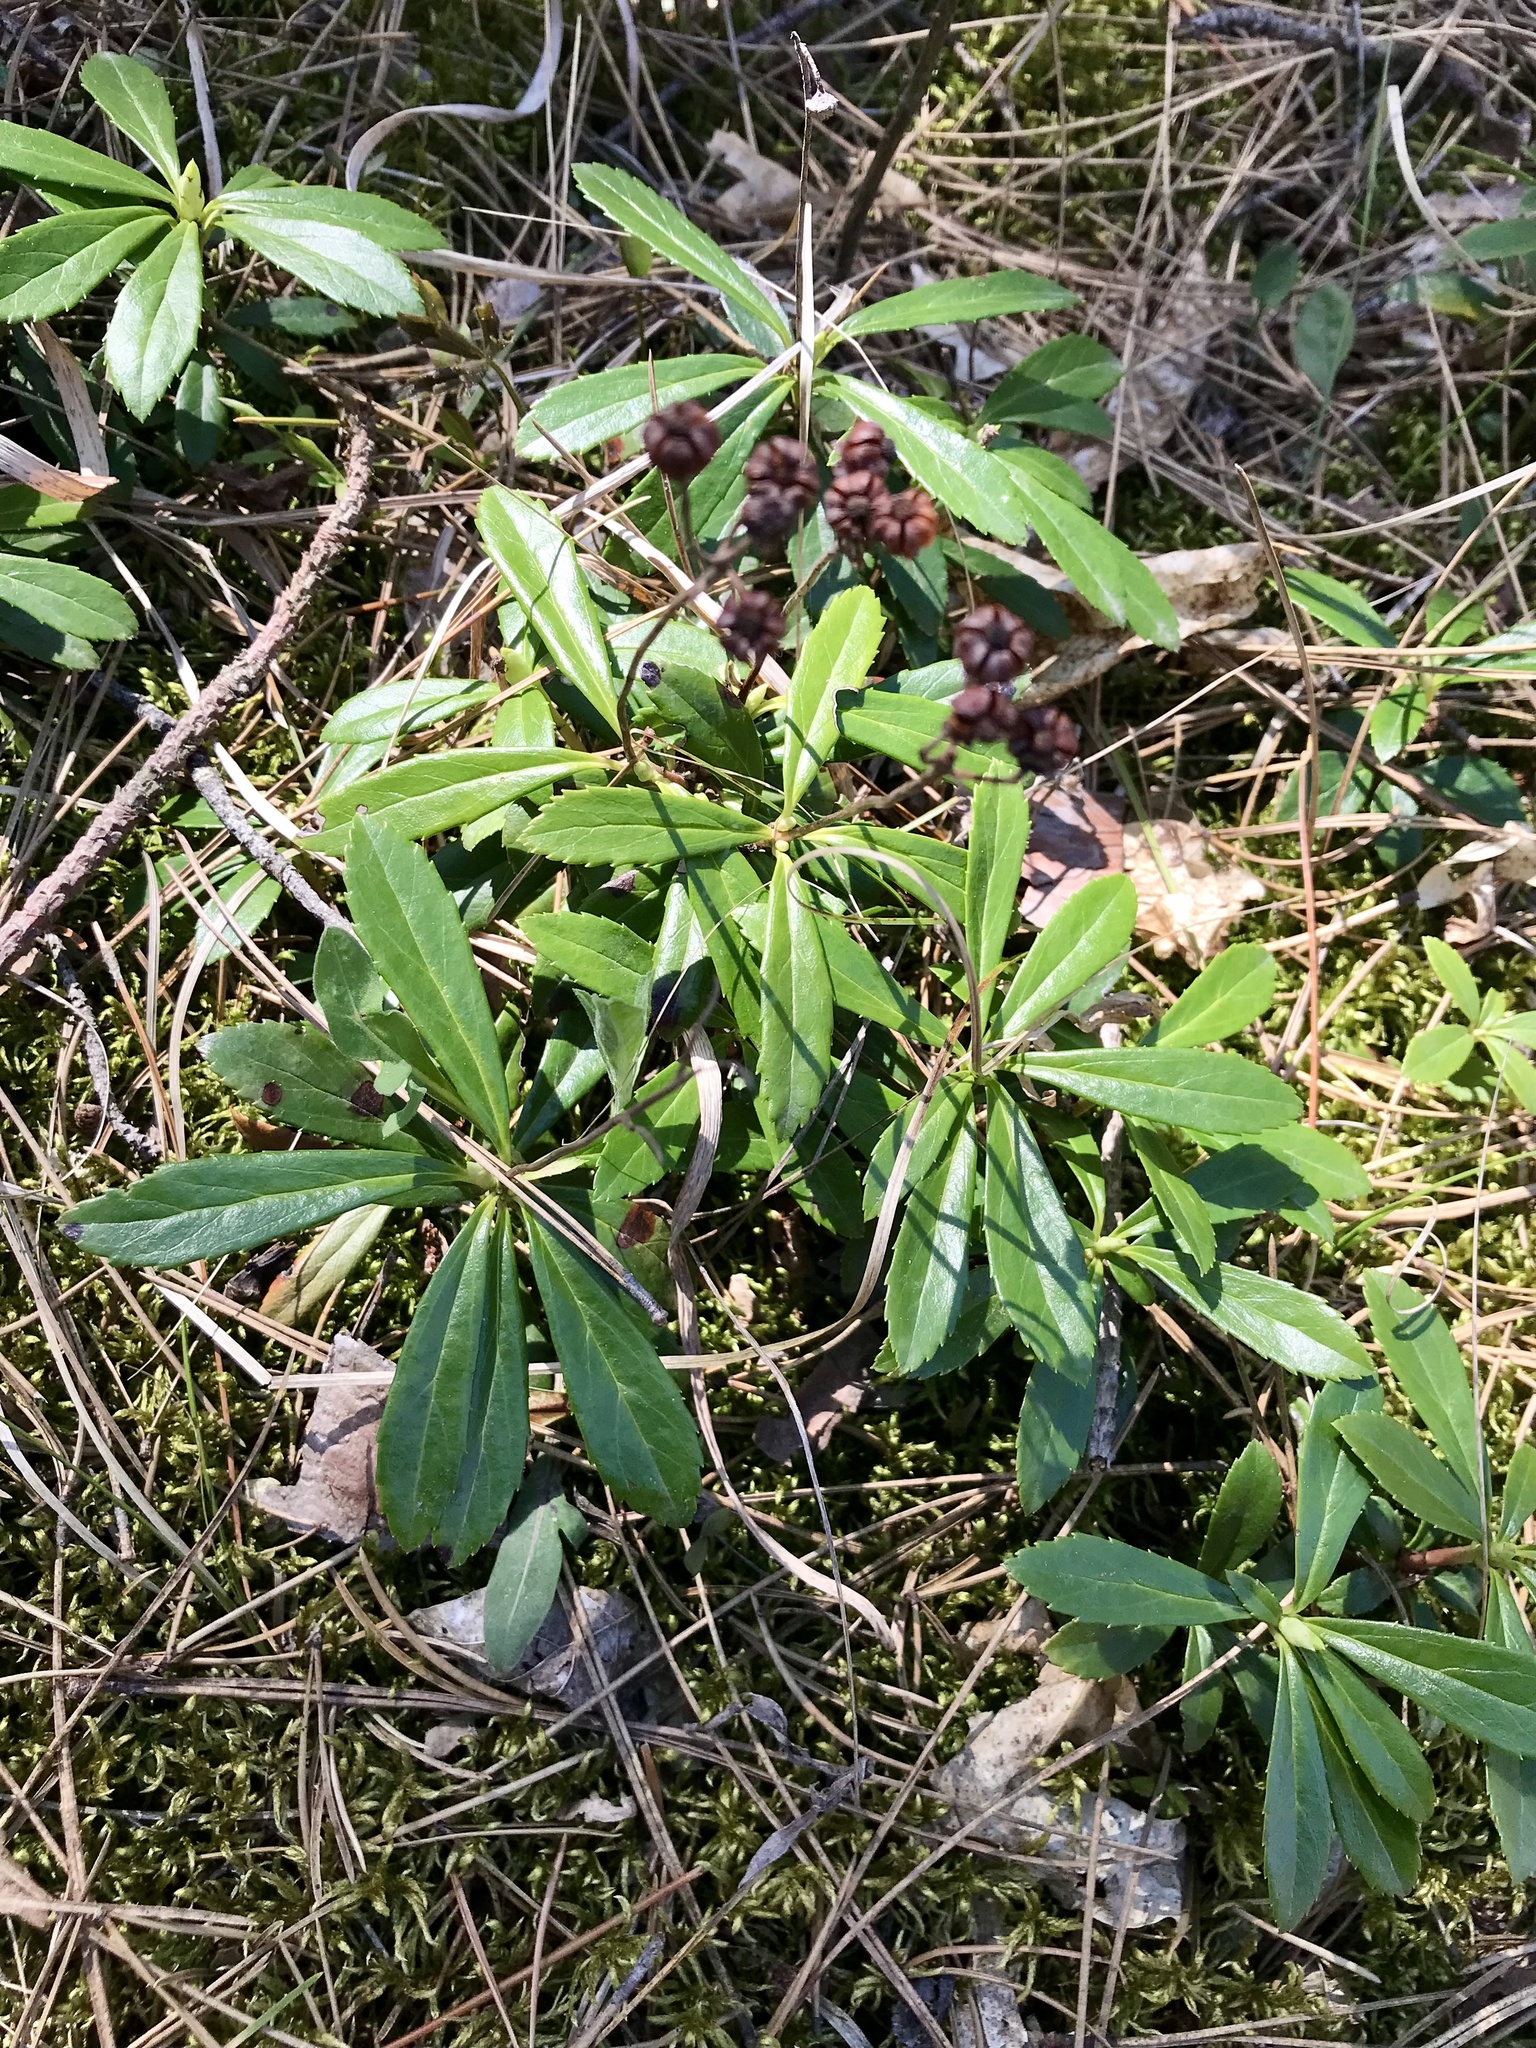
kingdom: Plantae
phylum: Tracheophyta
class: Magnoliopsida
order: Ericales
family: Ericaceae
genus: Chimaphila
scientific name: Chimaphila umbellata
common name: Pipsissewa
